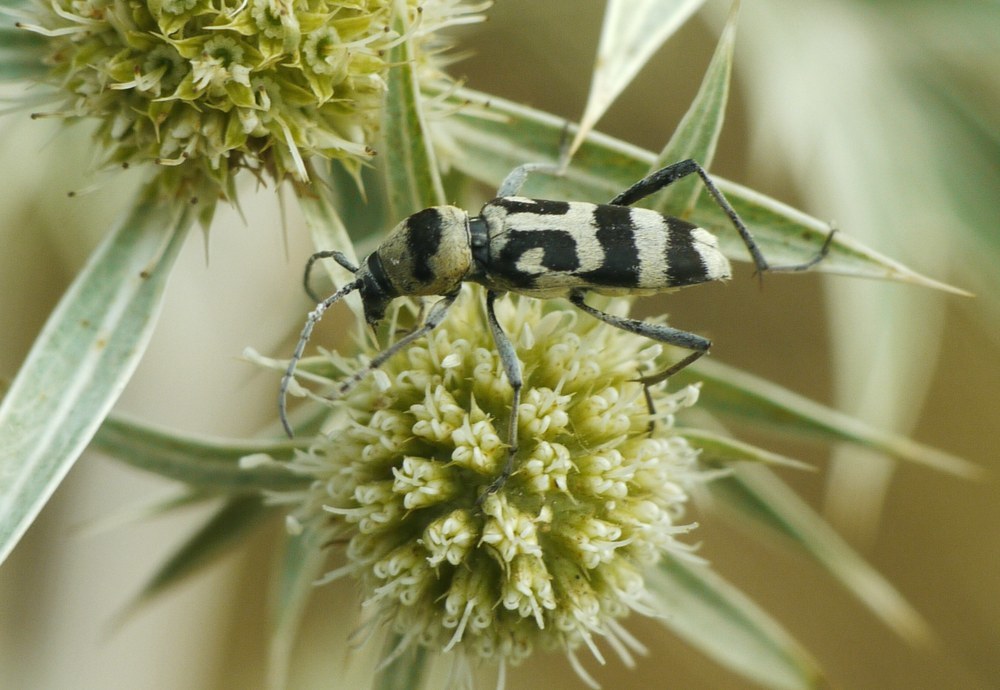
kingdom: Animalia
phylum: Arthropoda
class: Insecta
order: Coleoptera
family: Cerambycidae
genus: Chlorophorus
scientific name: Chlorophorus varius
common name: Grape wood borer
